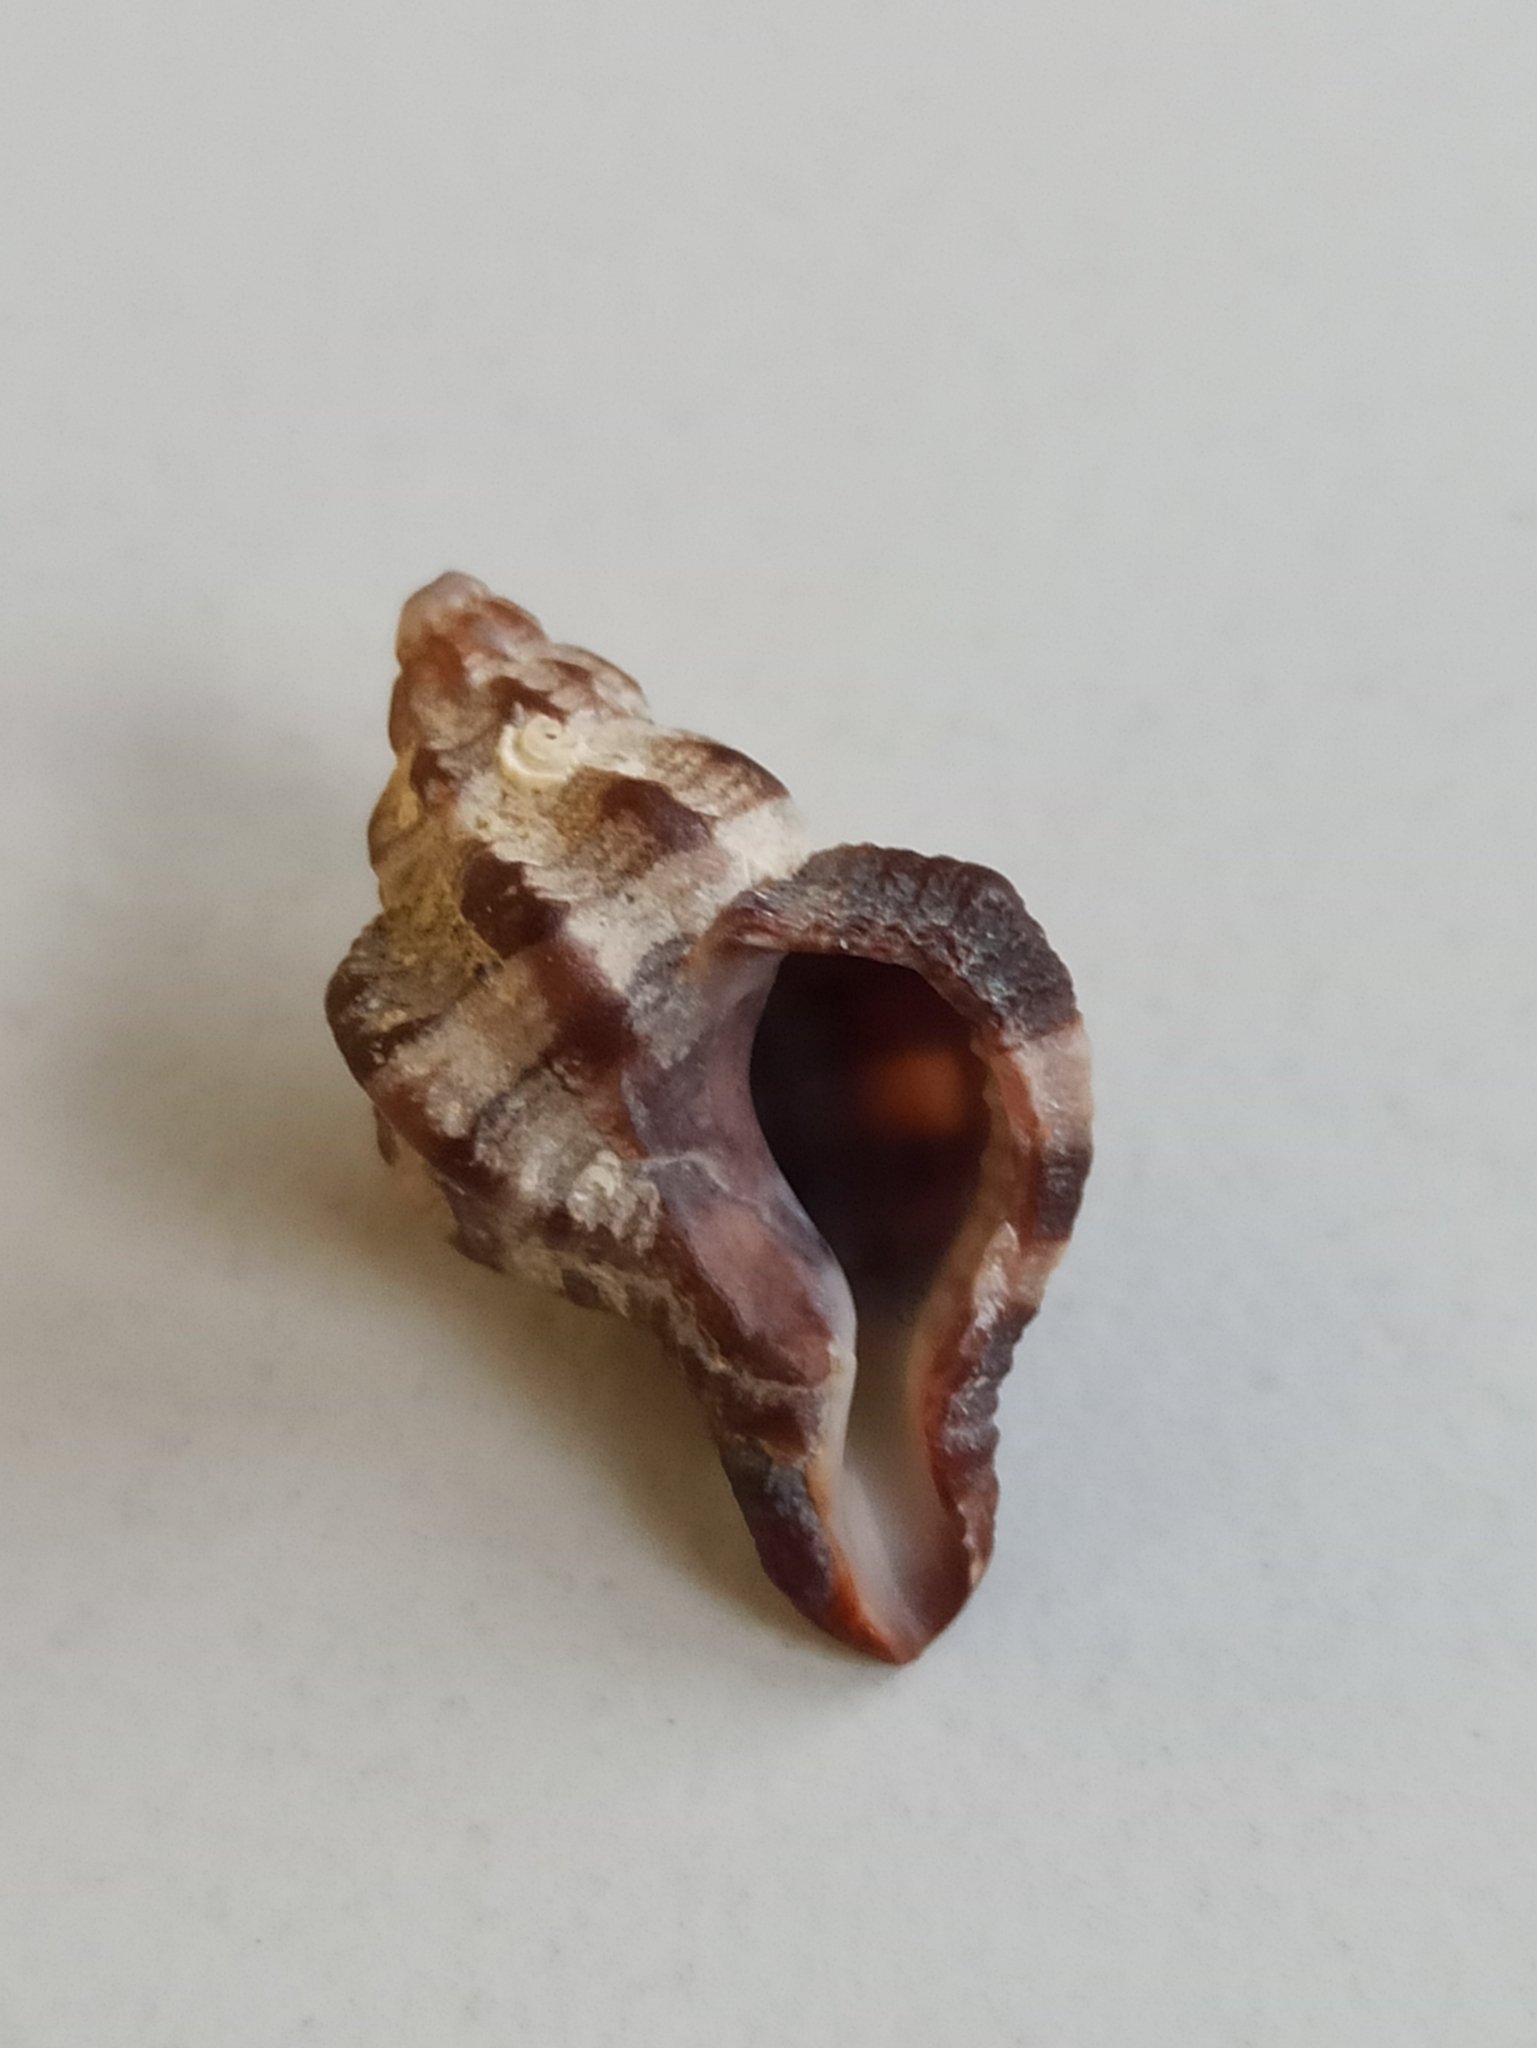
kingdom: Animalia
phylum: Mollusca
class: Gastropoda
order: Neogastropoda
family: Muricidae
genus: Hexaplex
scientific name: Hexaplex trunculus
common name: Banded dye-murex
